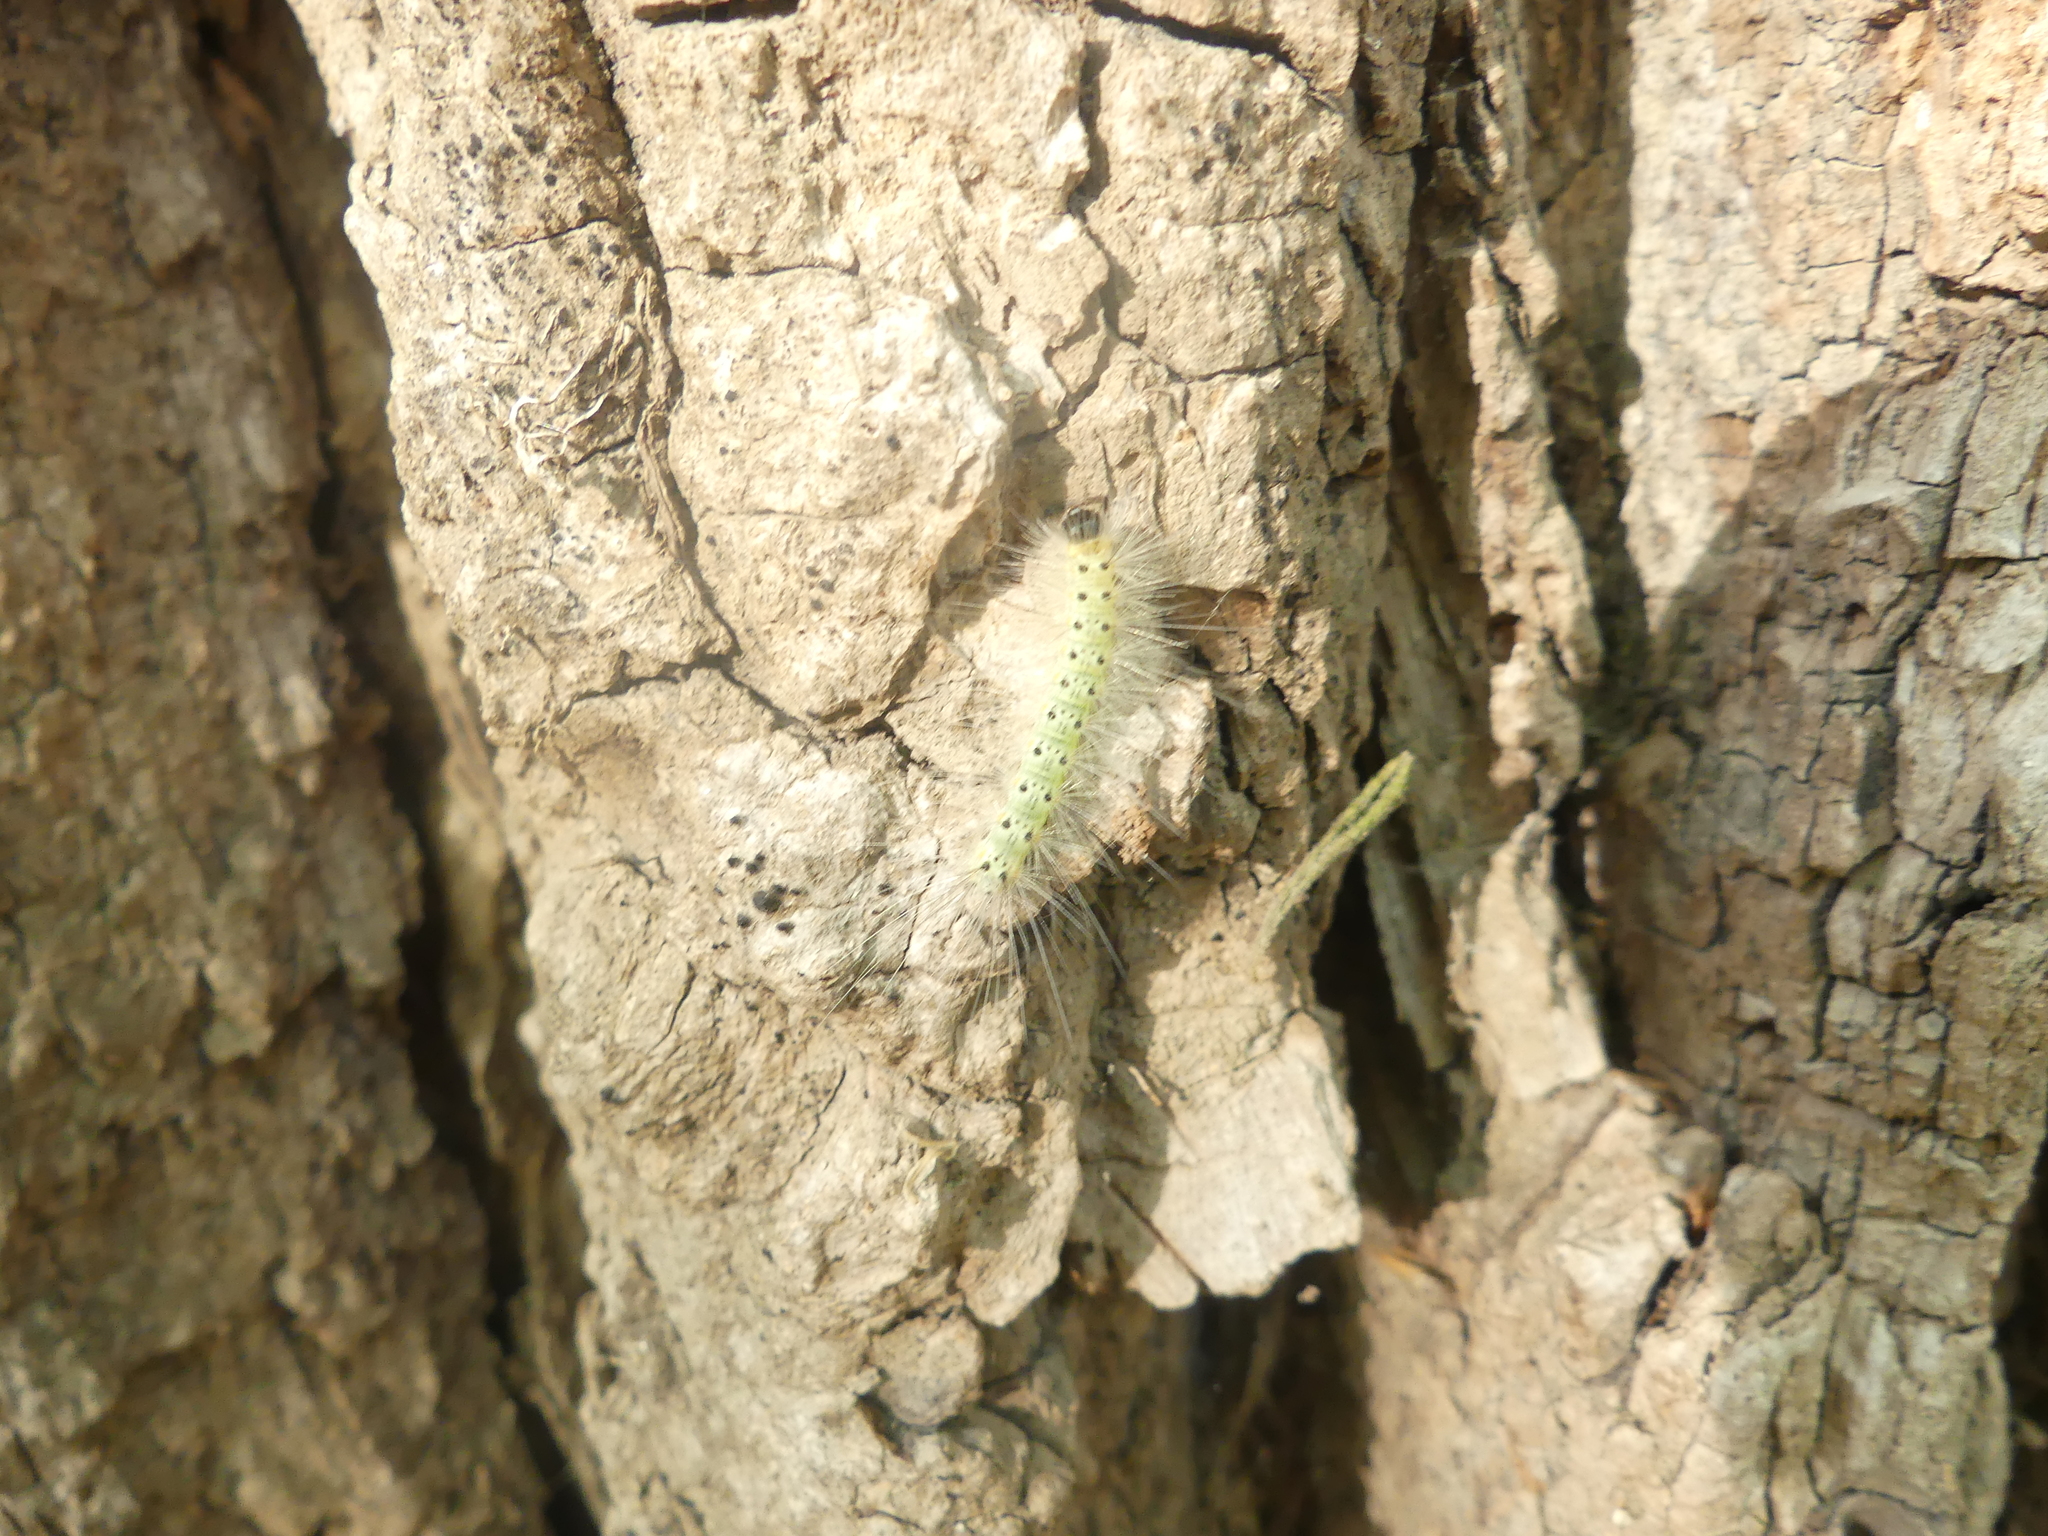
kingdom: Animalia
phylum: Arthropoda
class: Insecta
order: Lepidoptera
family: Erebidae
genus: Hyphantria
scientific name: Hyphantria cunea
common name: American white moth
